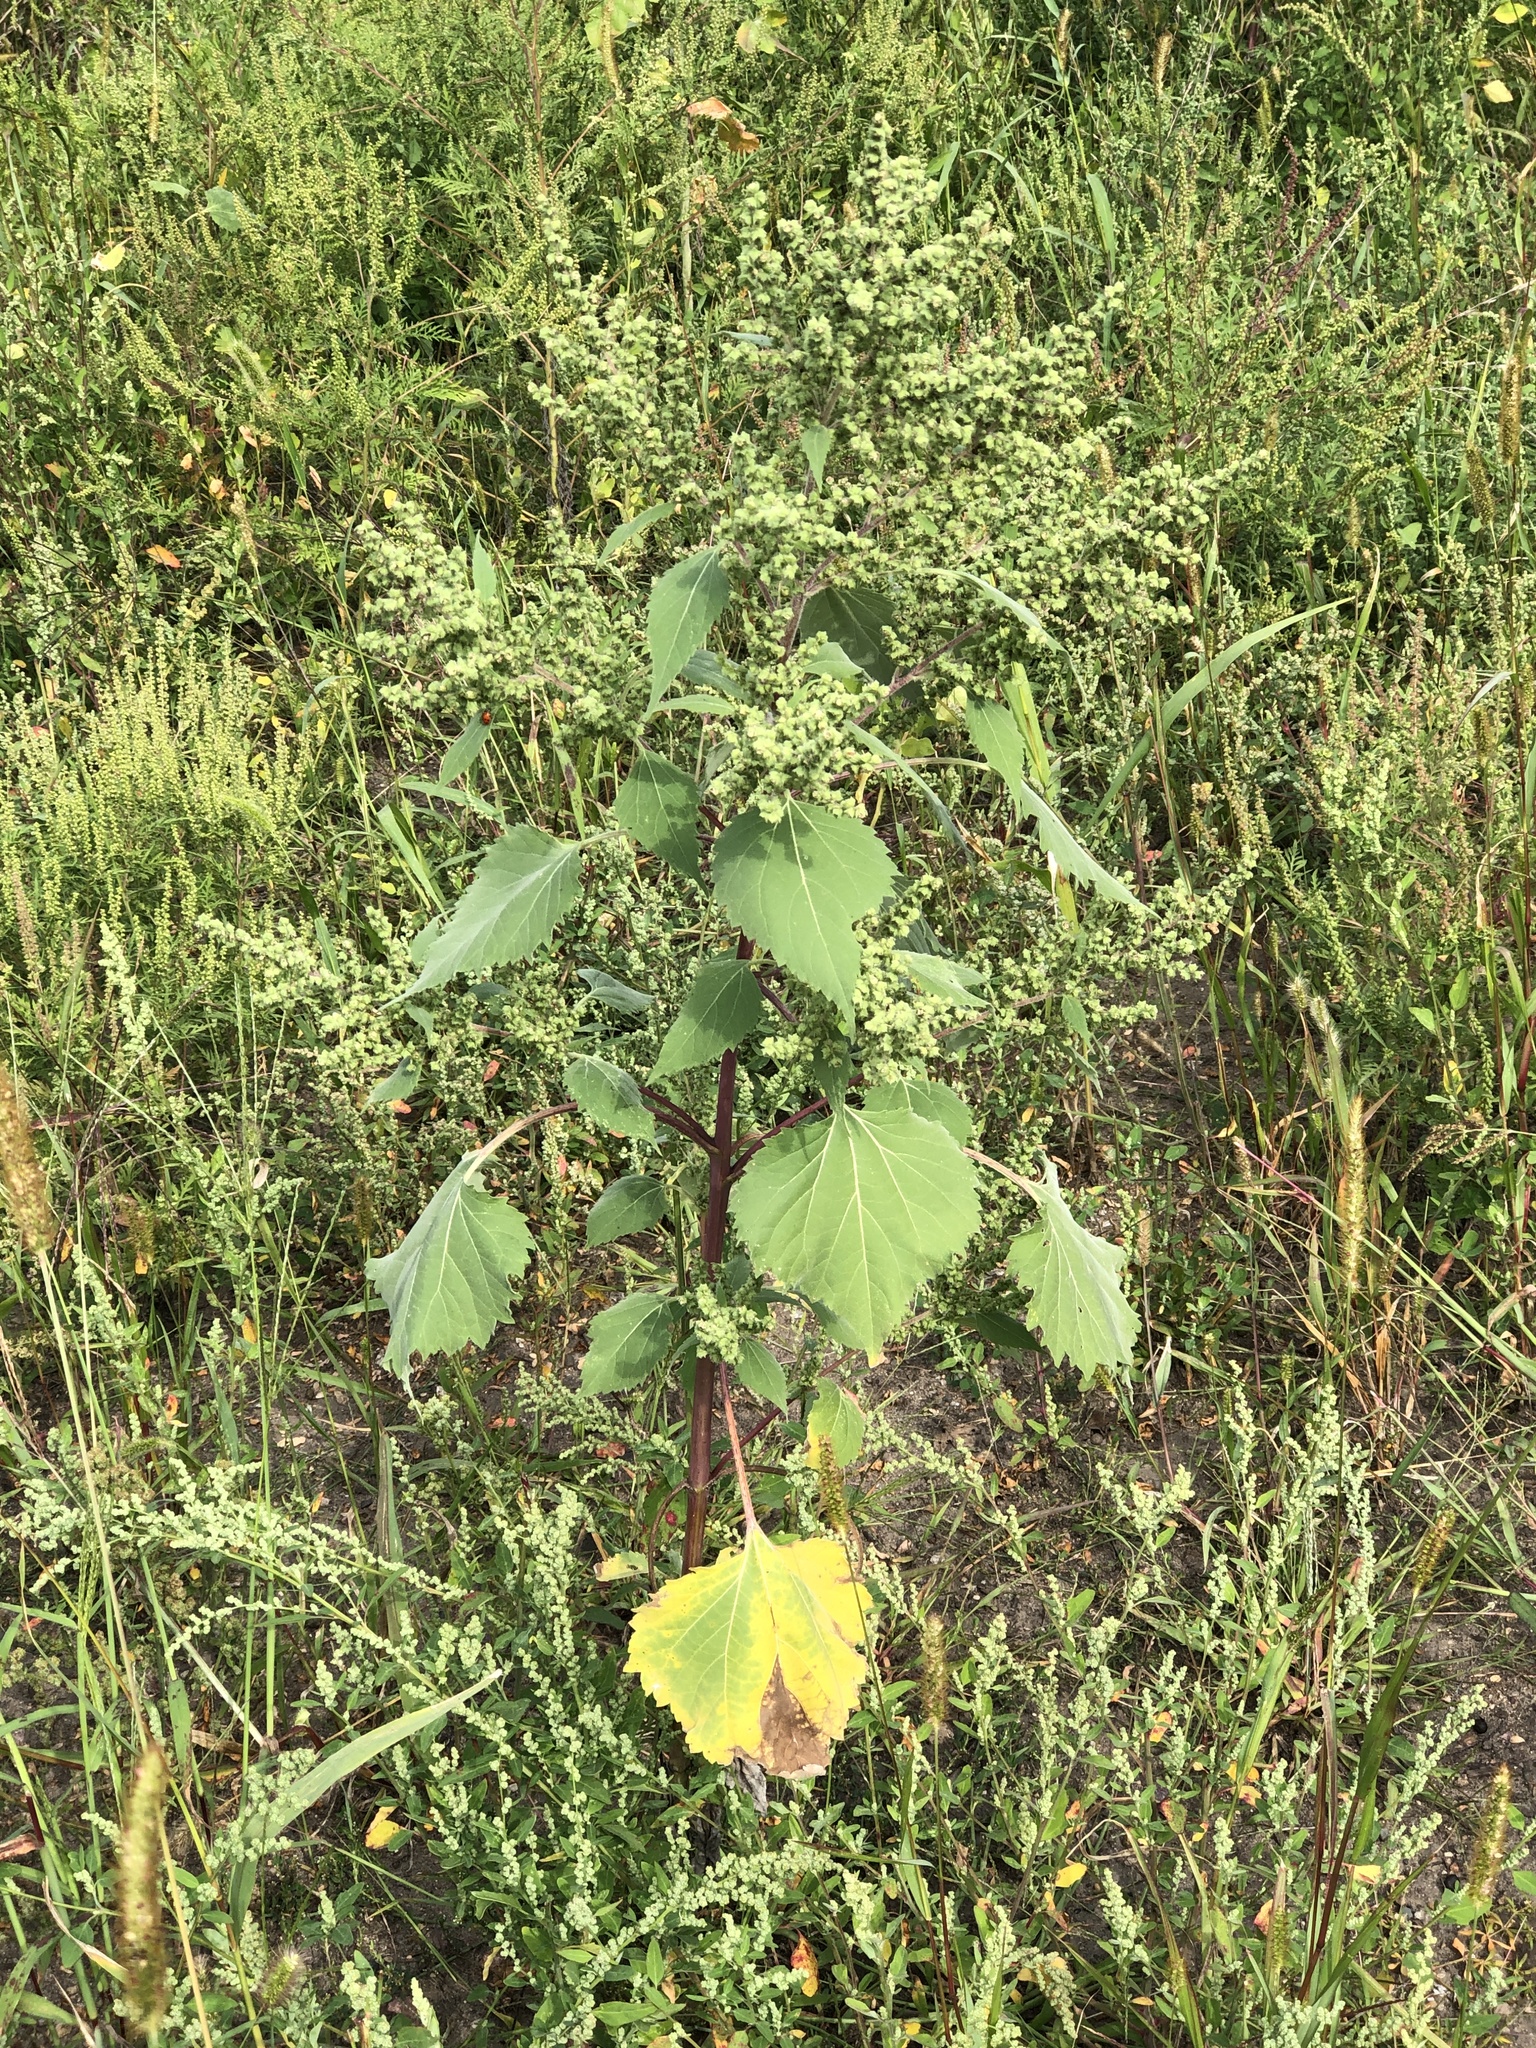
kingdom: Plantae
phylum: Tracheophyta
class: Magnoliopsida
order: Asterales
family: Asteraceae
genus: Cyclachaena
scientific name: Cyclachaena xanthiifolia
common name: Giant sumpweed
